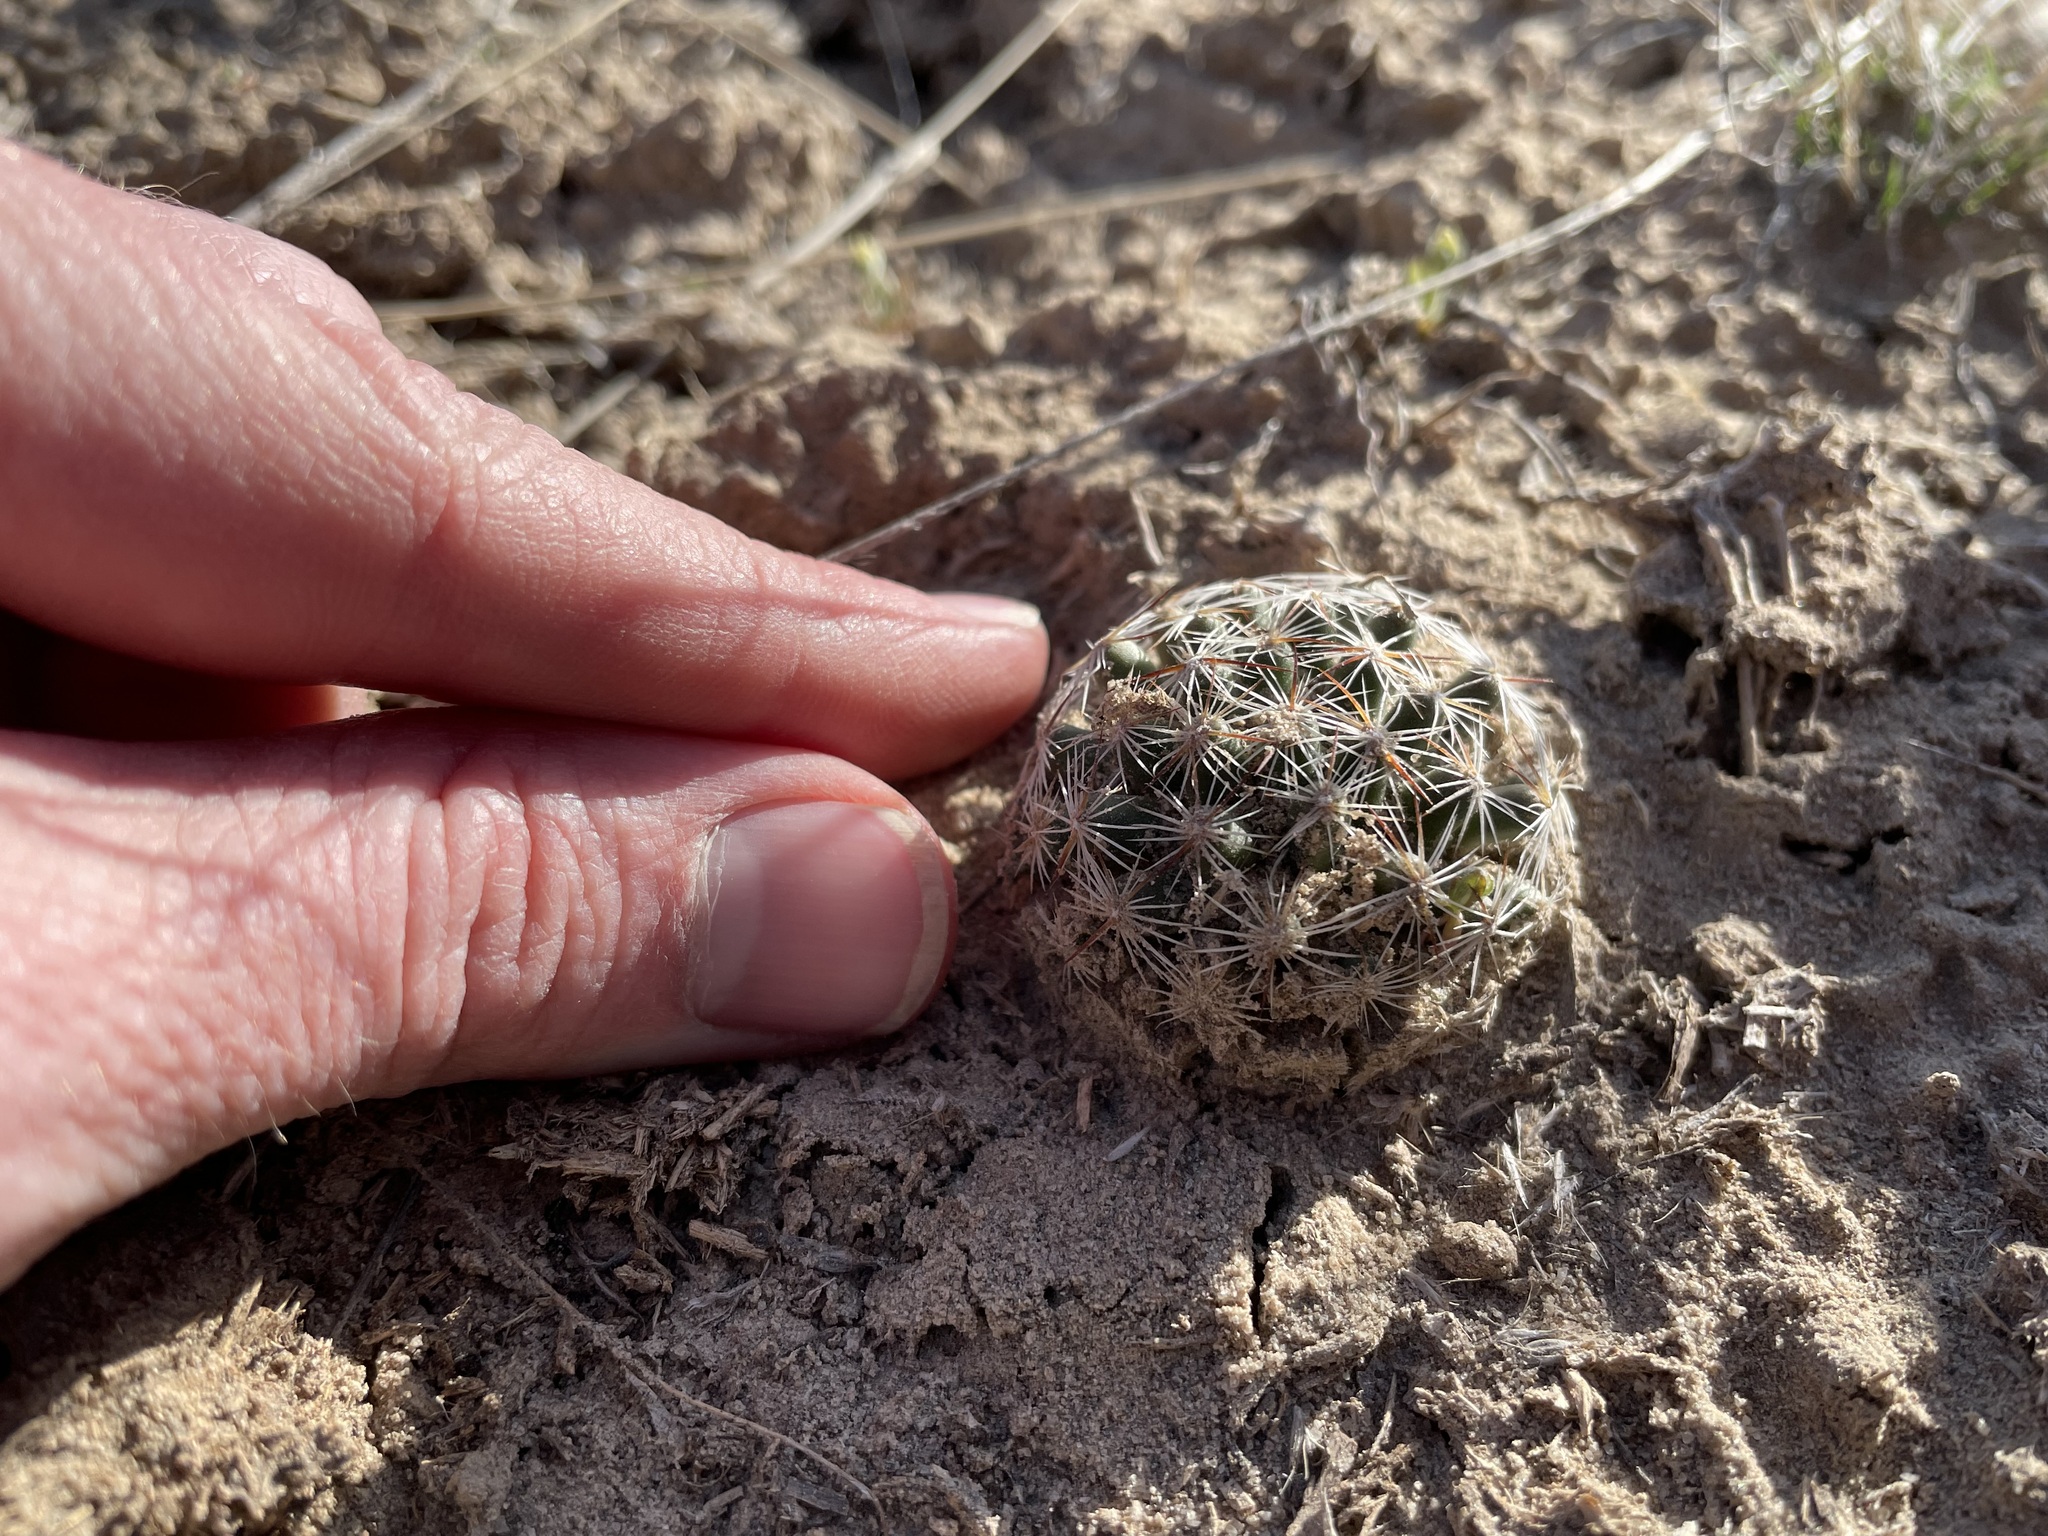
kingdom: Plantae
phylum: Tracheophyta
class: Magnoliopsida
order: Caryophyllales
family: Cactaceae
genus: Pelecyphora
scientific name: Pelecyphora vivipara
